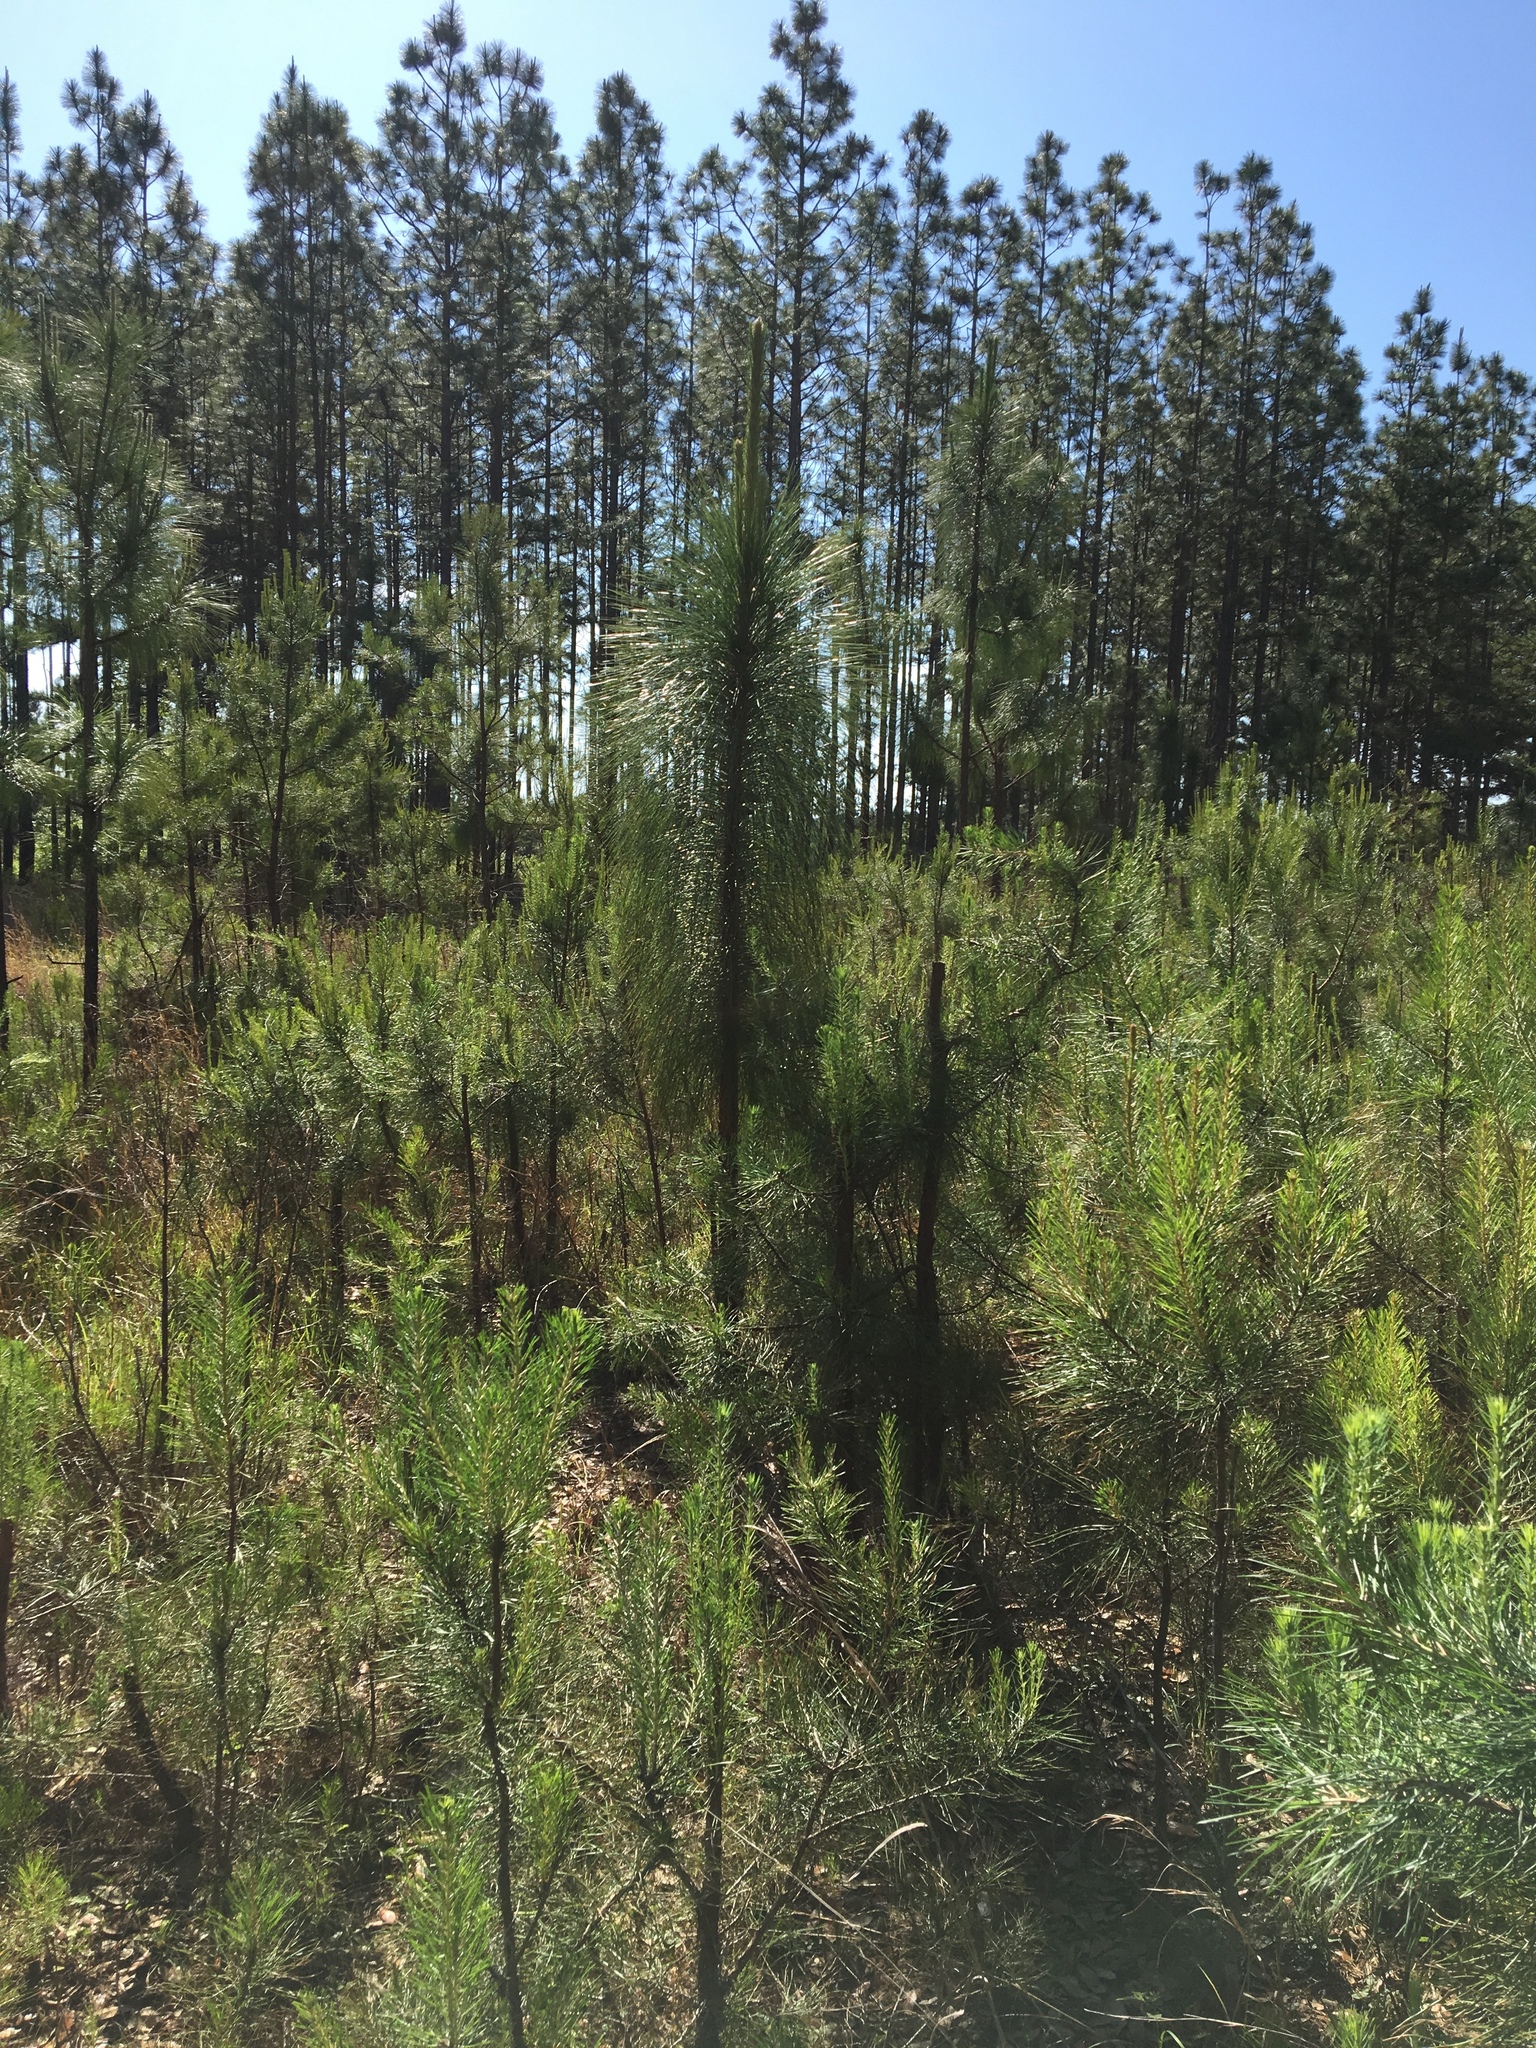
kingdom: Plantae
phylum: Tracheophyta
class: Pinopsida
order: Pinales
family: Pinaceae
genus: Pinus
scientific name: Pinus palustris
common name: Longleaf pine
